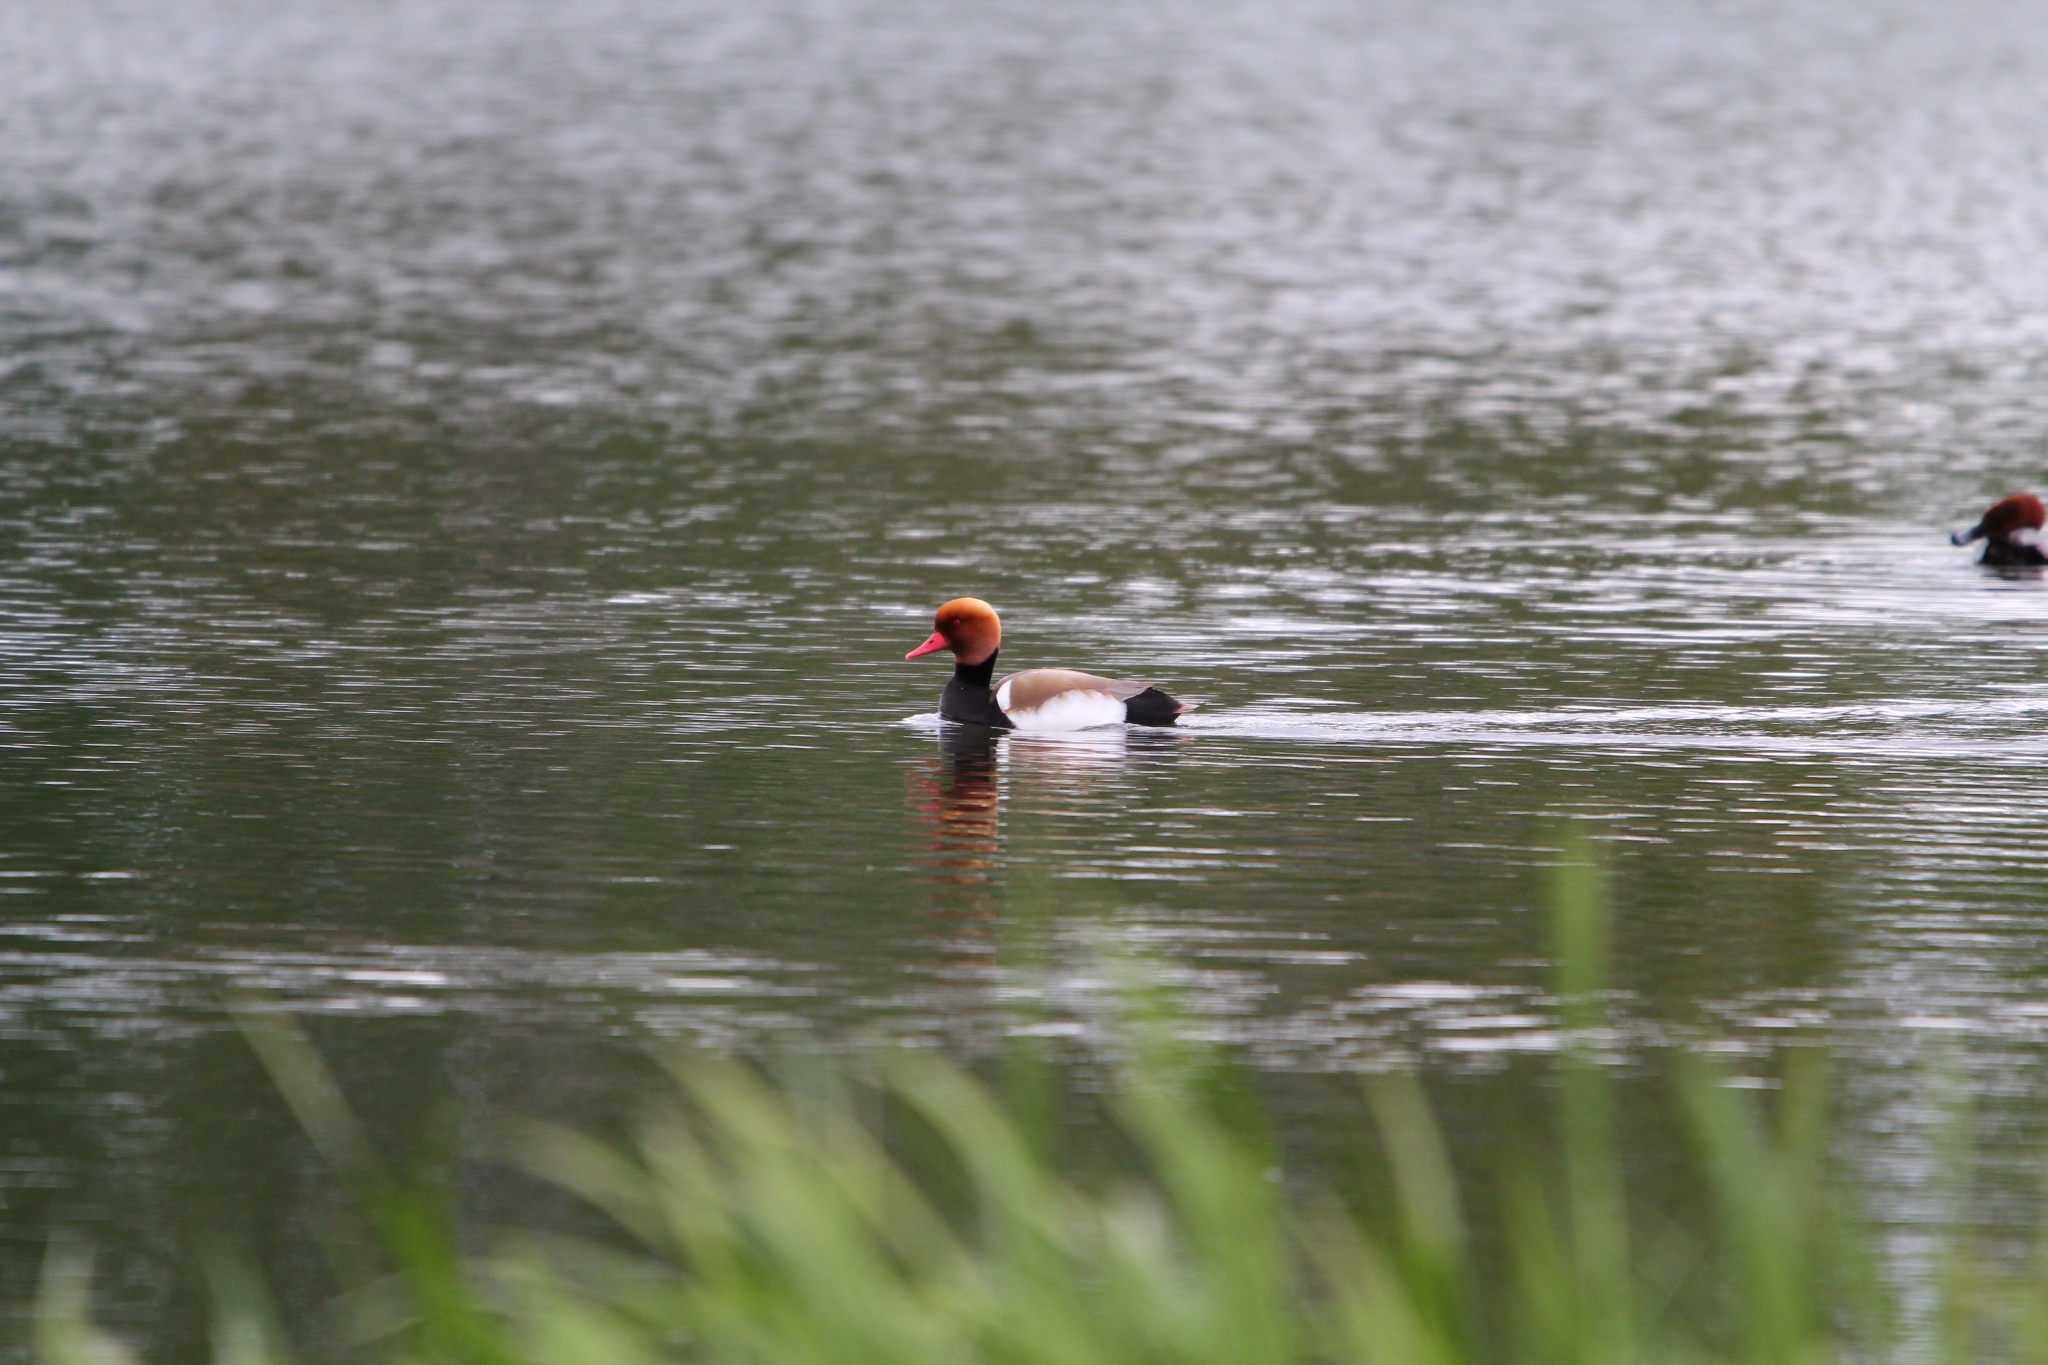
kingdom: Animalia
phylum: Chordata
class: Aves
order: Anseriformes
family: Anatidae
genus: Netta
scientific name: Netta rufina
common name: Red-crested pochard
